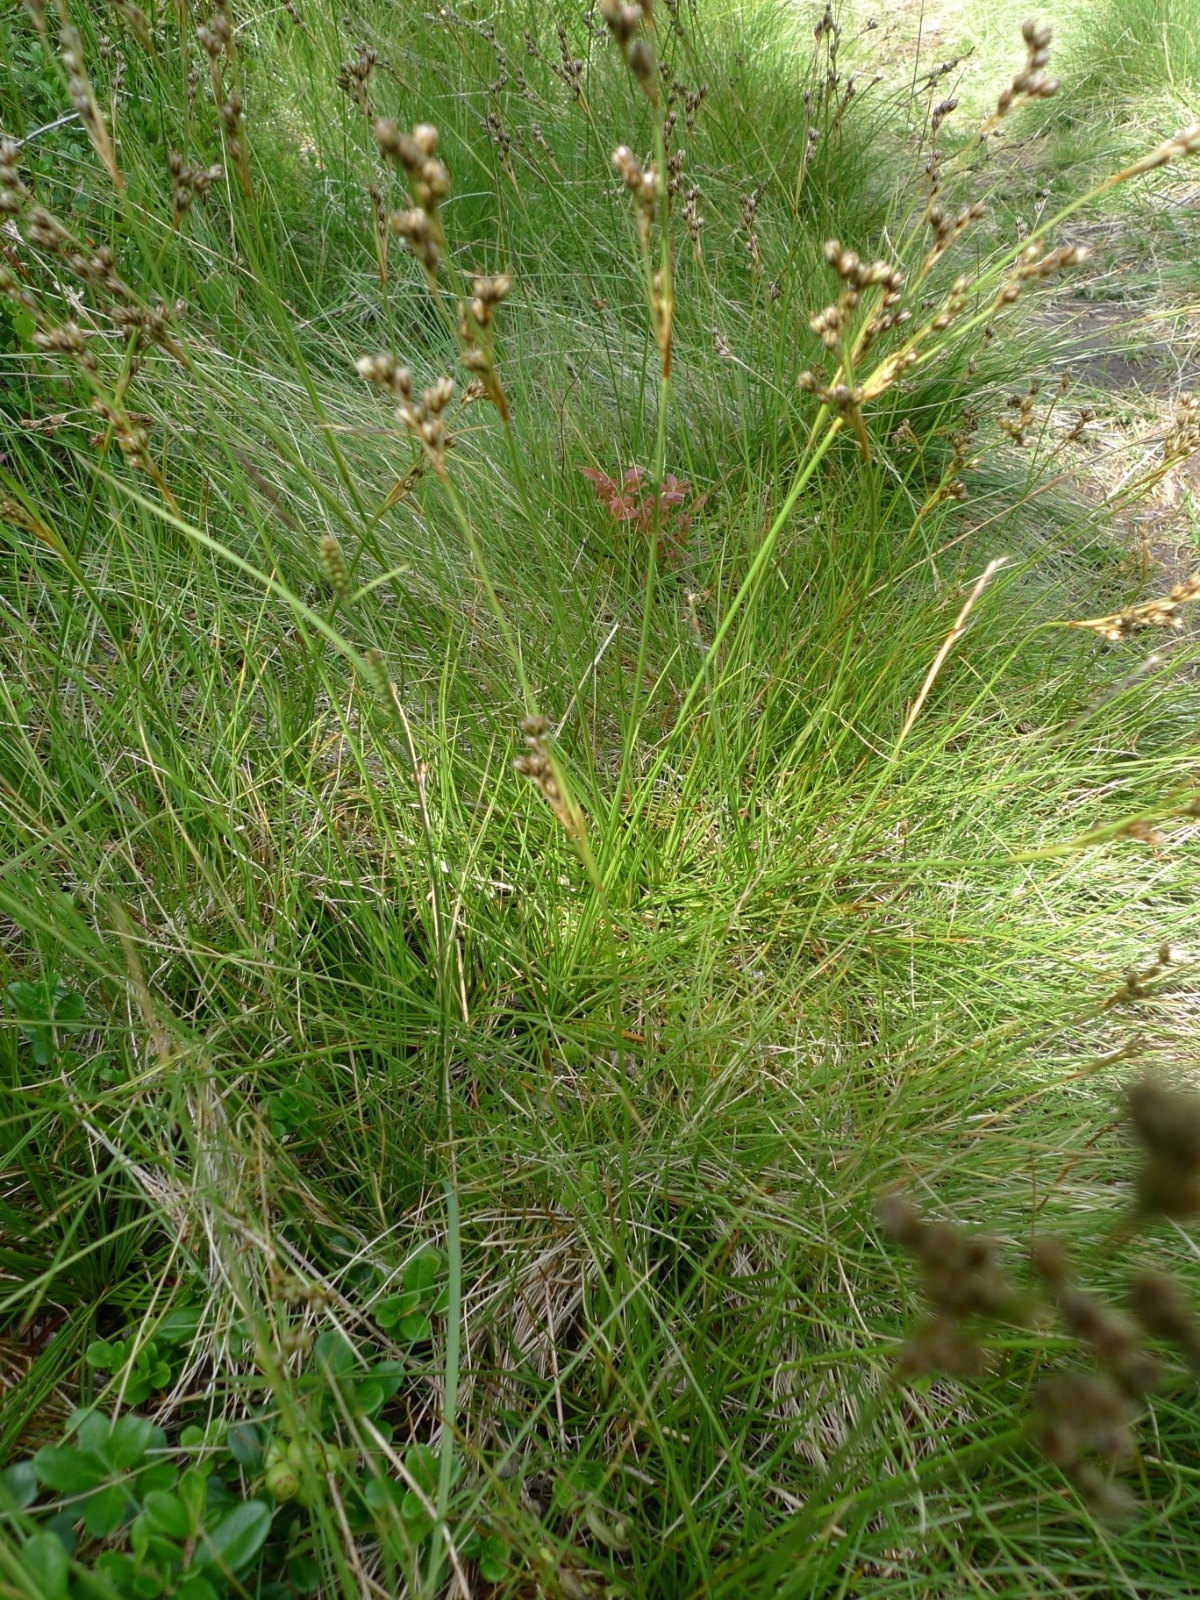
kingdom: Plantae
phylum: Tracheophyta
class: Liliopsida
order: Poales
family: Juncaceae
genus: Juncus
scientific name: Juncus squarrosus
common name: Heath rush
